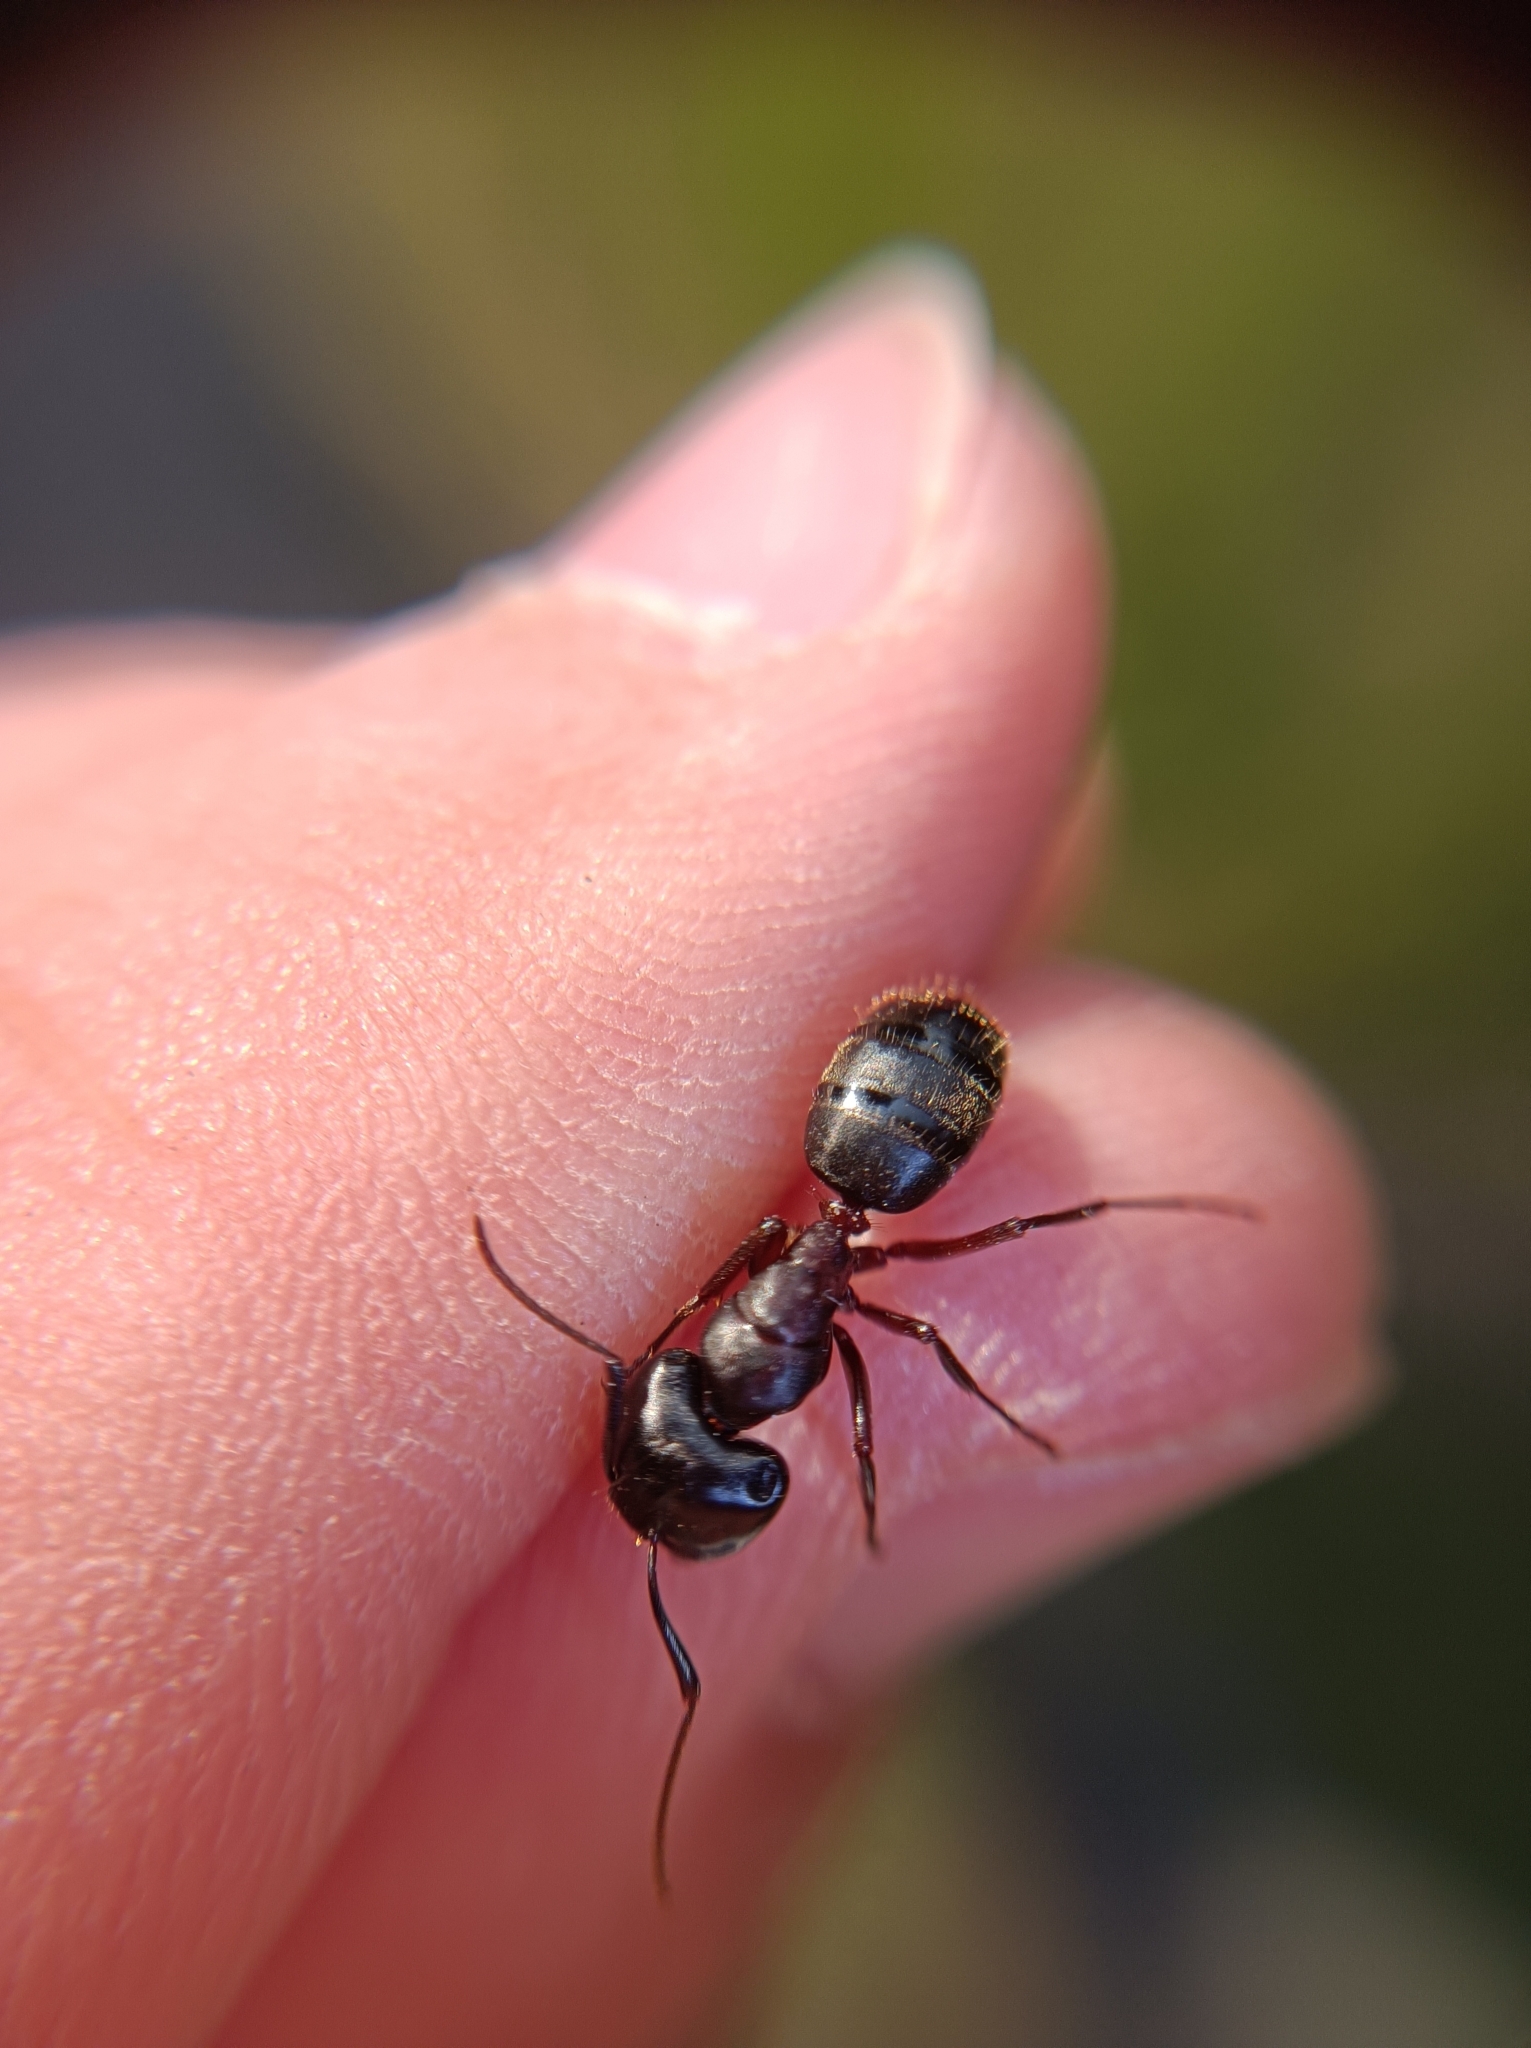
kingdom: Animalia
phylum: Arthropoda
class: Insecta
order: Hymenoptera
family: Formicidae
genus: Camponotus
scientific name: Camponotus herculeanus
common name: Hercules ant
